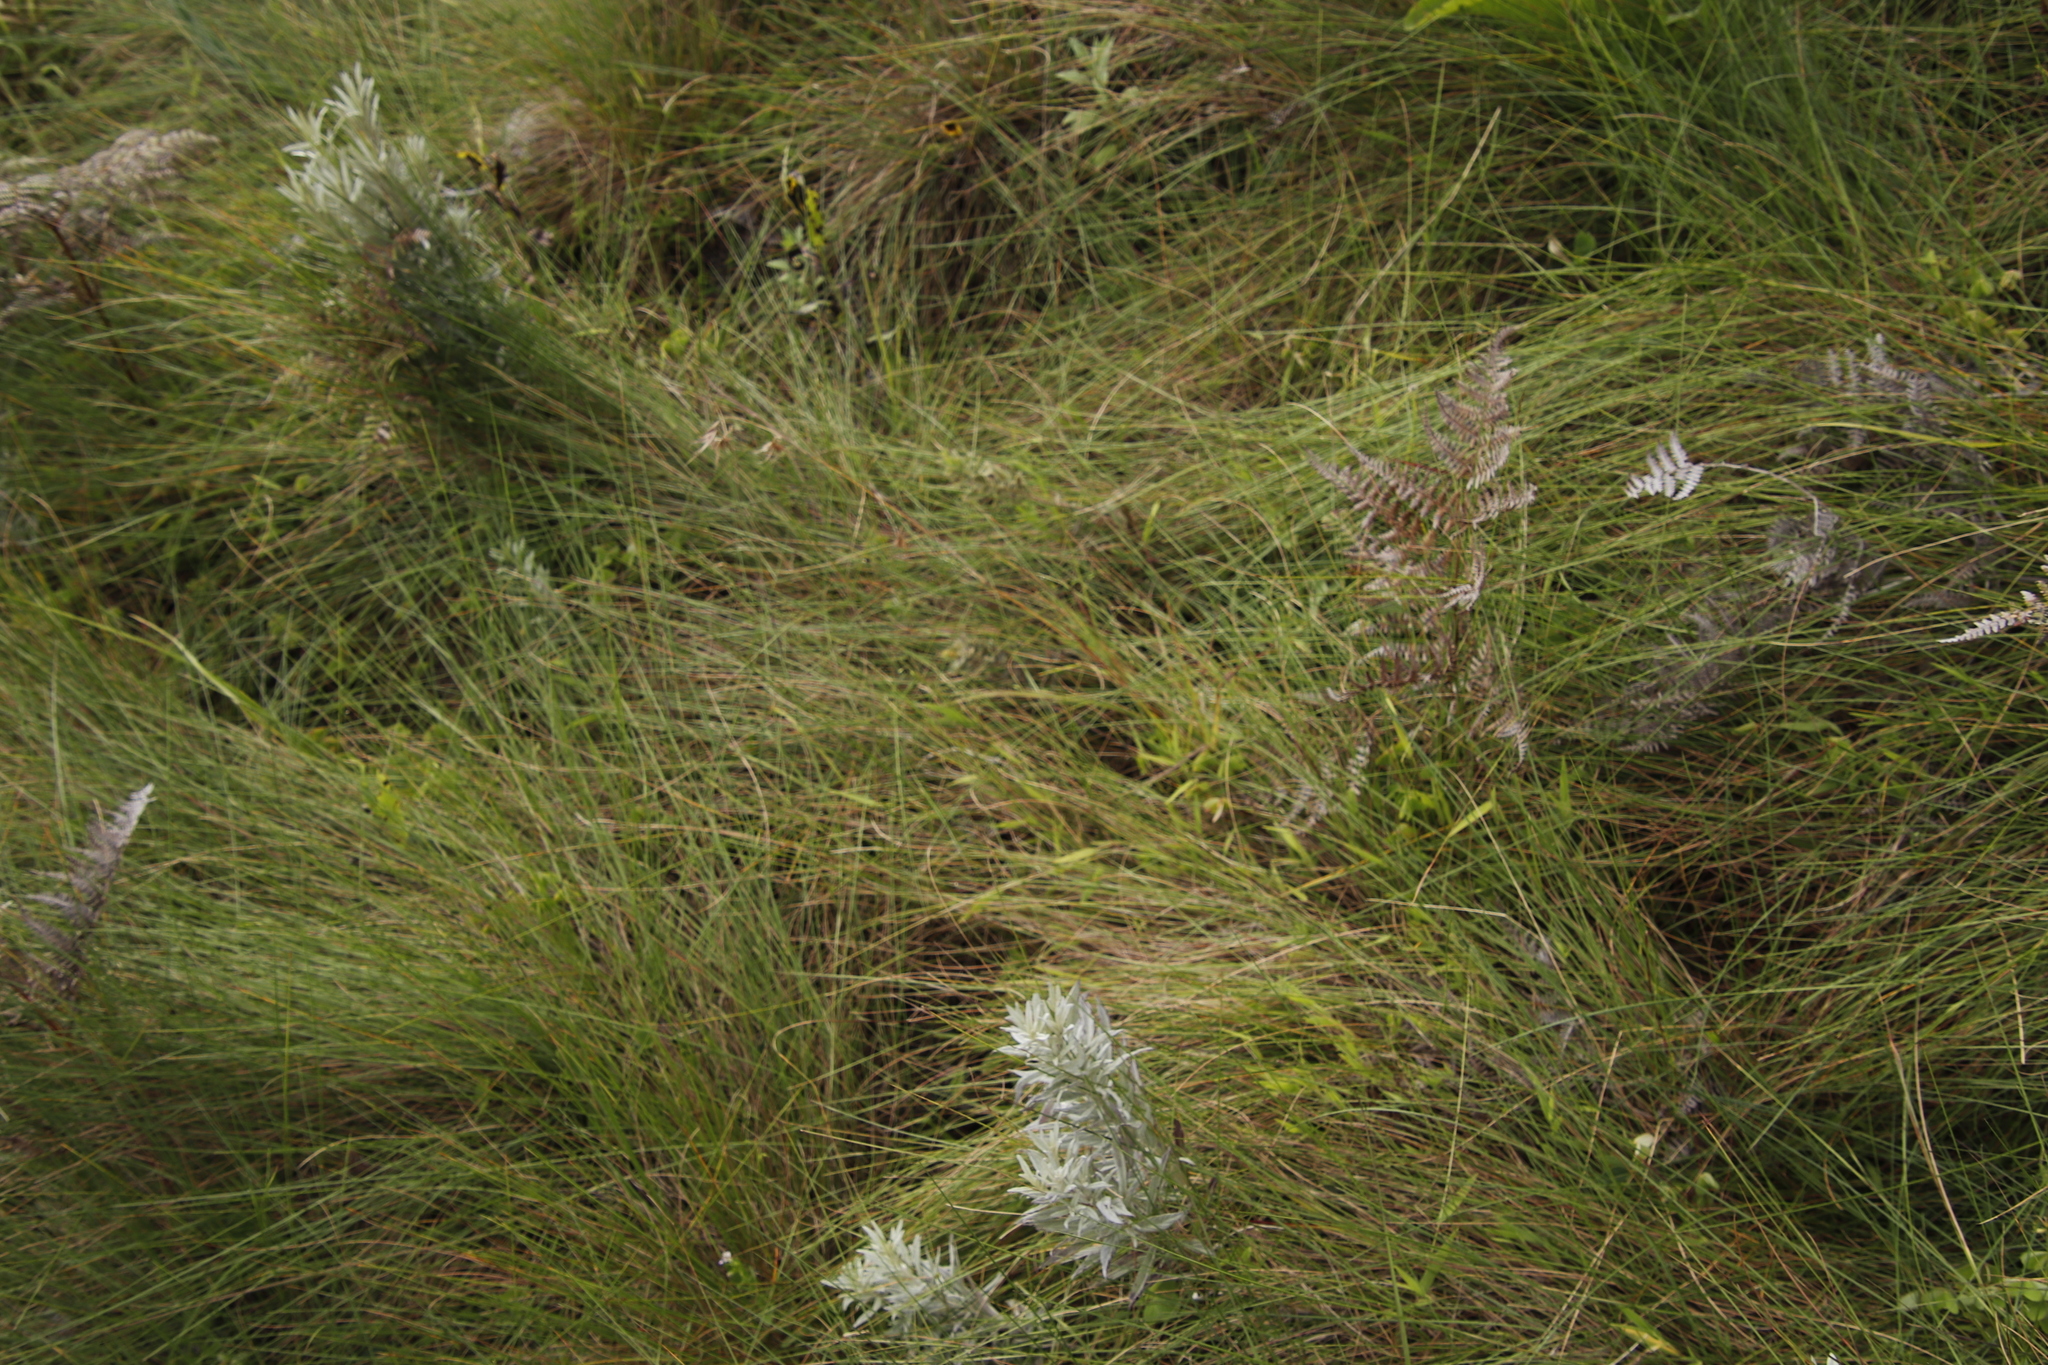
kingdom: Plantae
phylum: Tracheophyta
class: Liliopsida
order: Poales
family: Poaceae
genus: Themeda
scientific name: Themeda triandra
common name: Kangaroo grass
